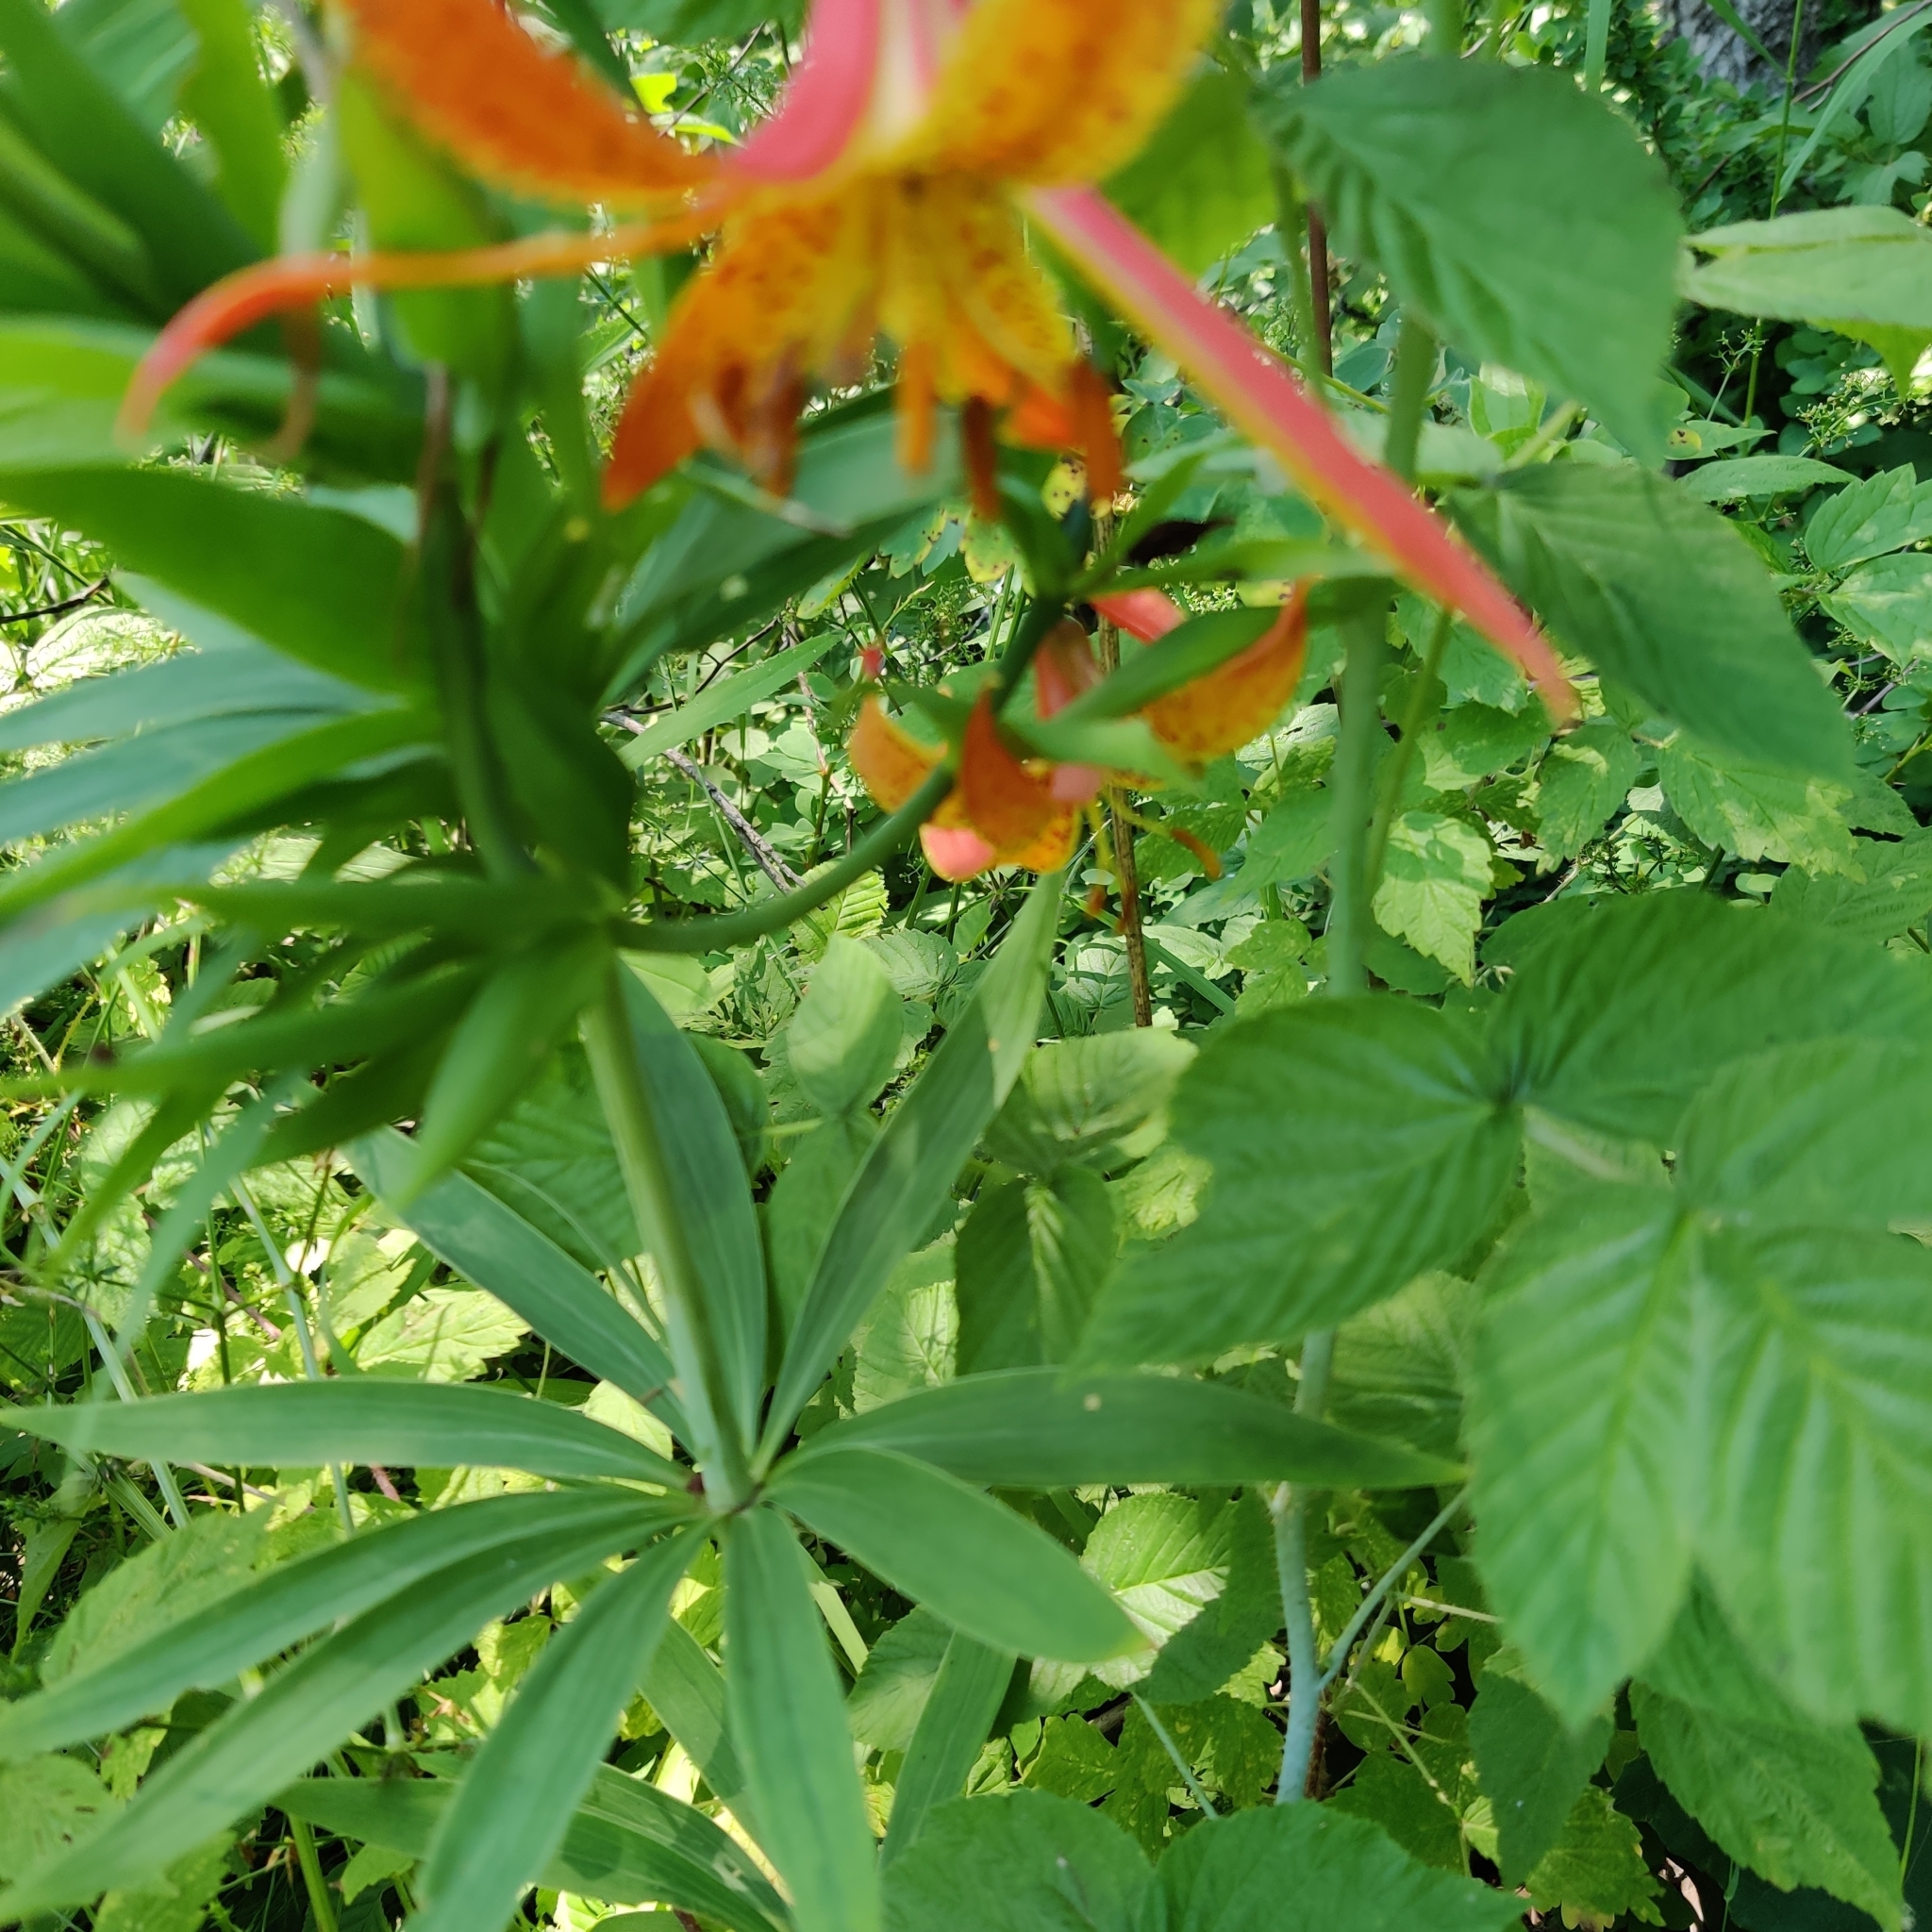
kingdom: Plantae
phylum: Tracheophyta
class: Liliopsida
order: Liliales
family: Liliaceae
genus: Lilium
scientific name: Lilium michiganense
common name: Michigan lily
